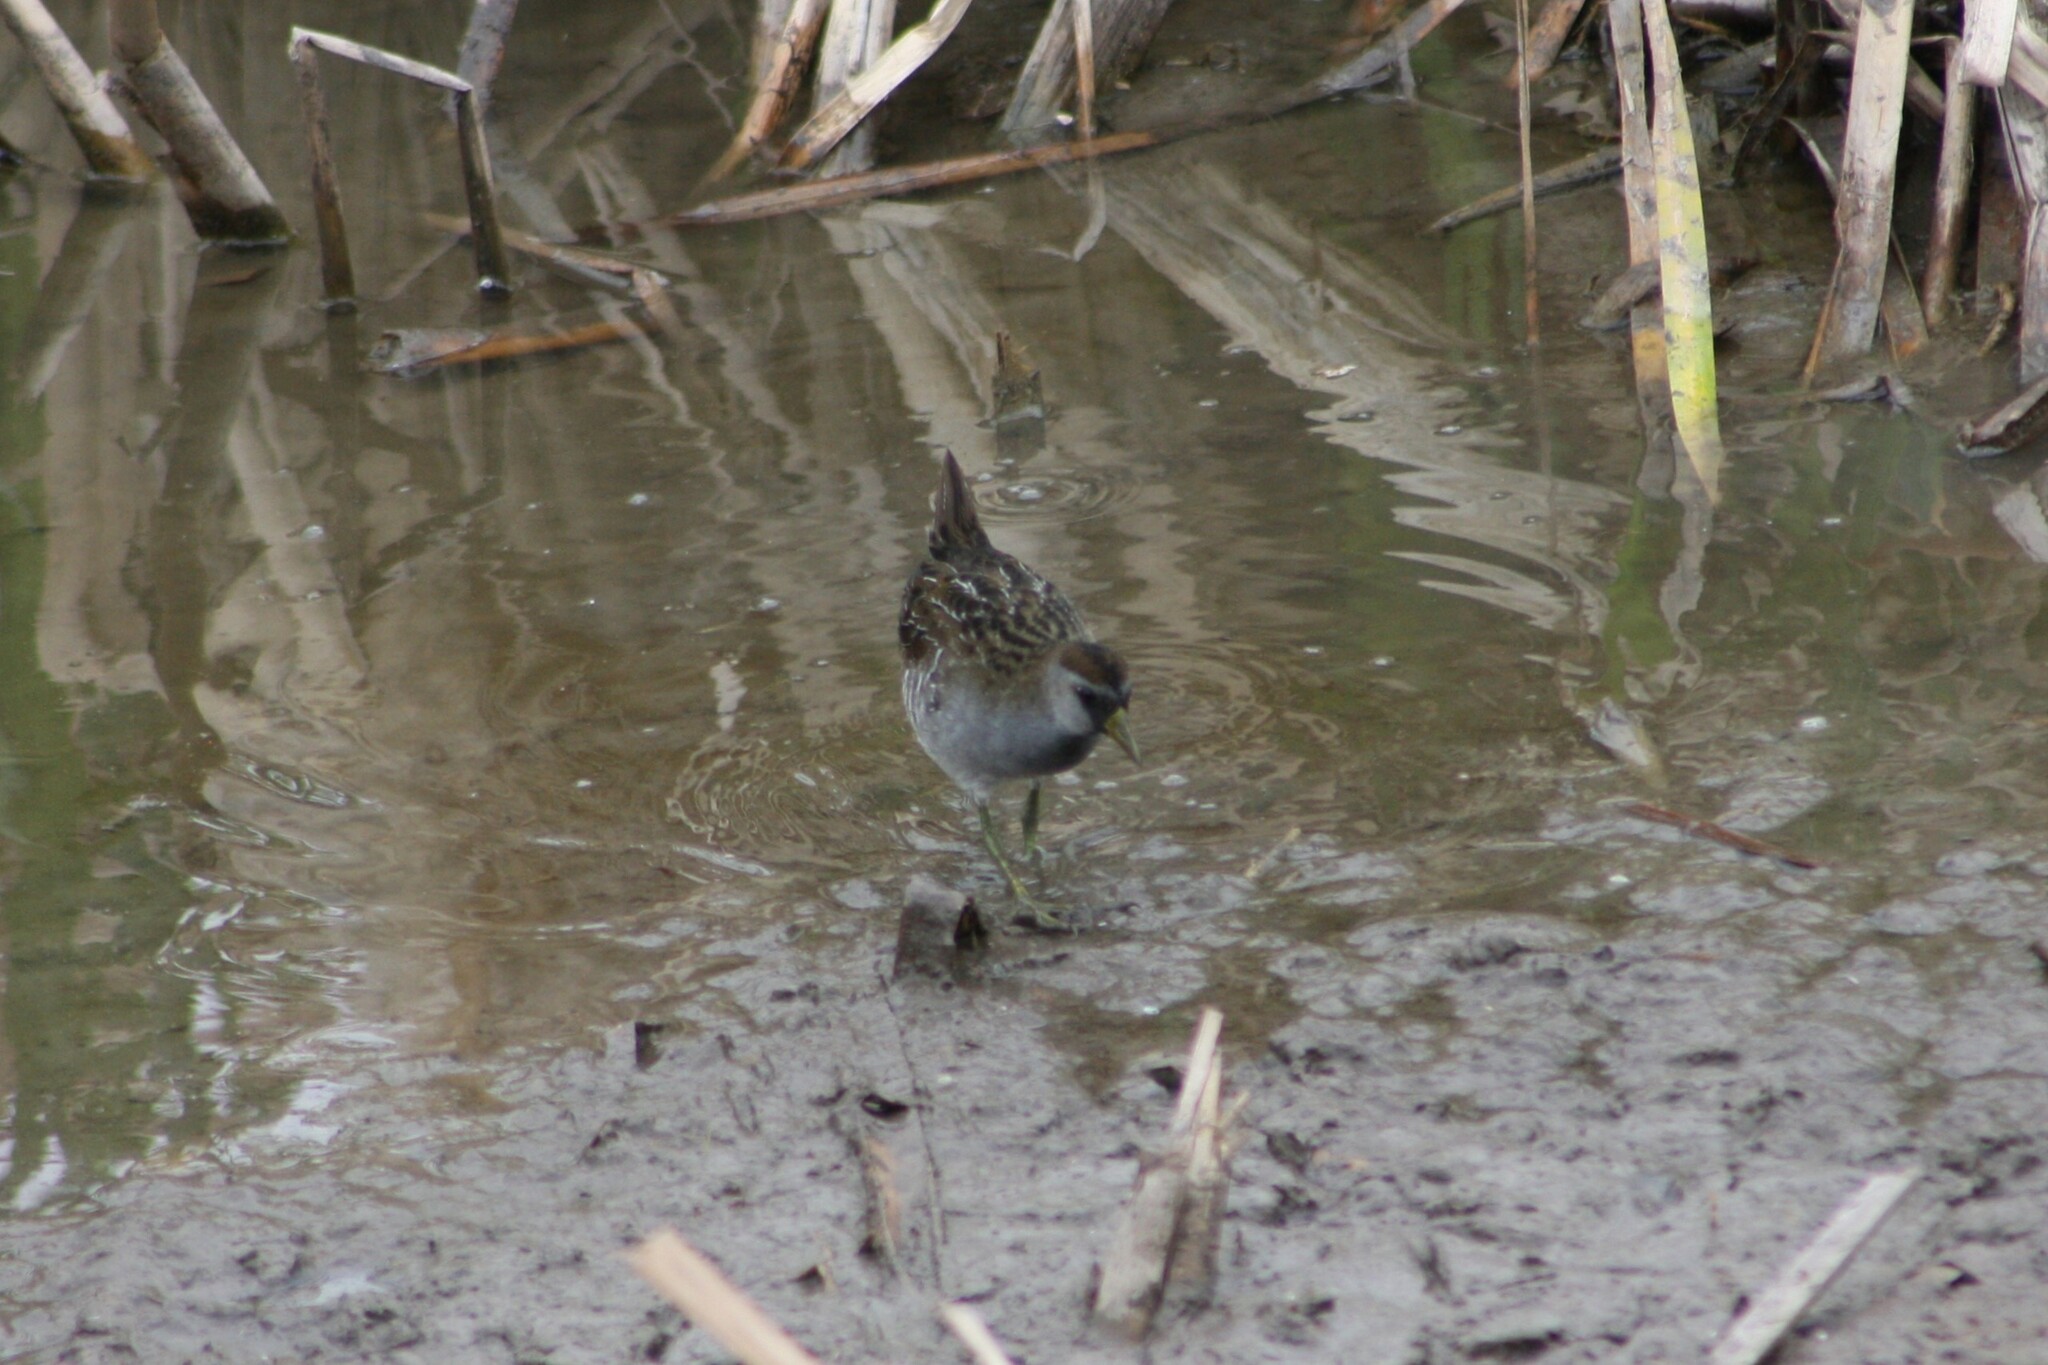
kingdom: Animalia
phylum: Chordata
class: Aves
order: Gruiformes
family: Rallidae
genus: Porzana
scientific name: Porzana carolina
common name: Sora
